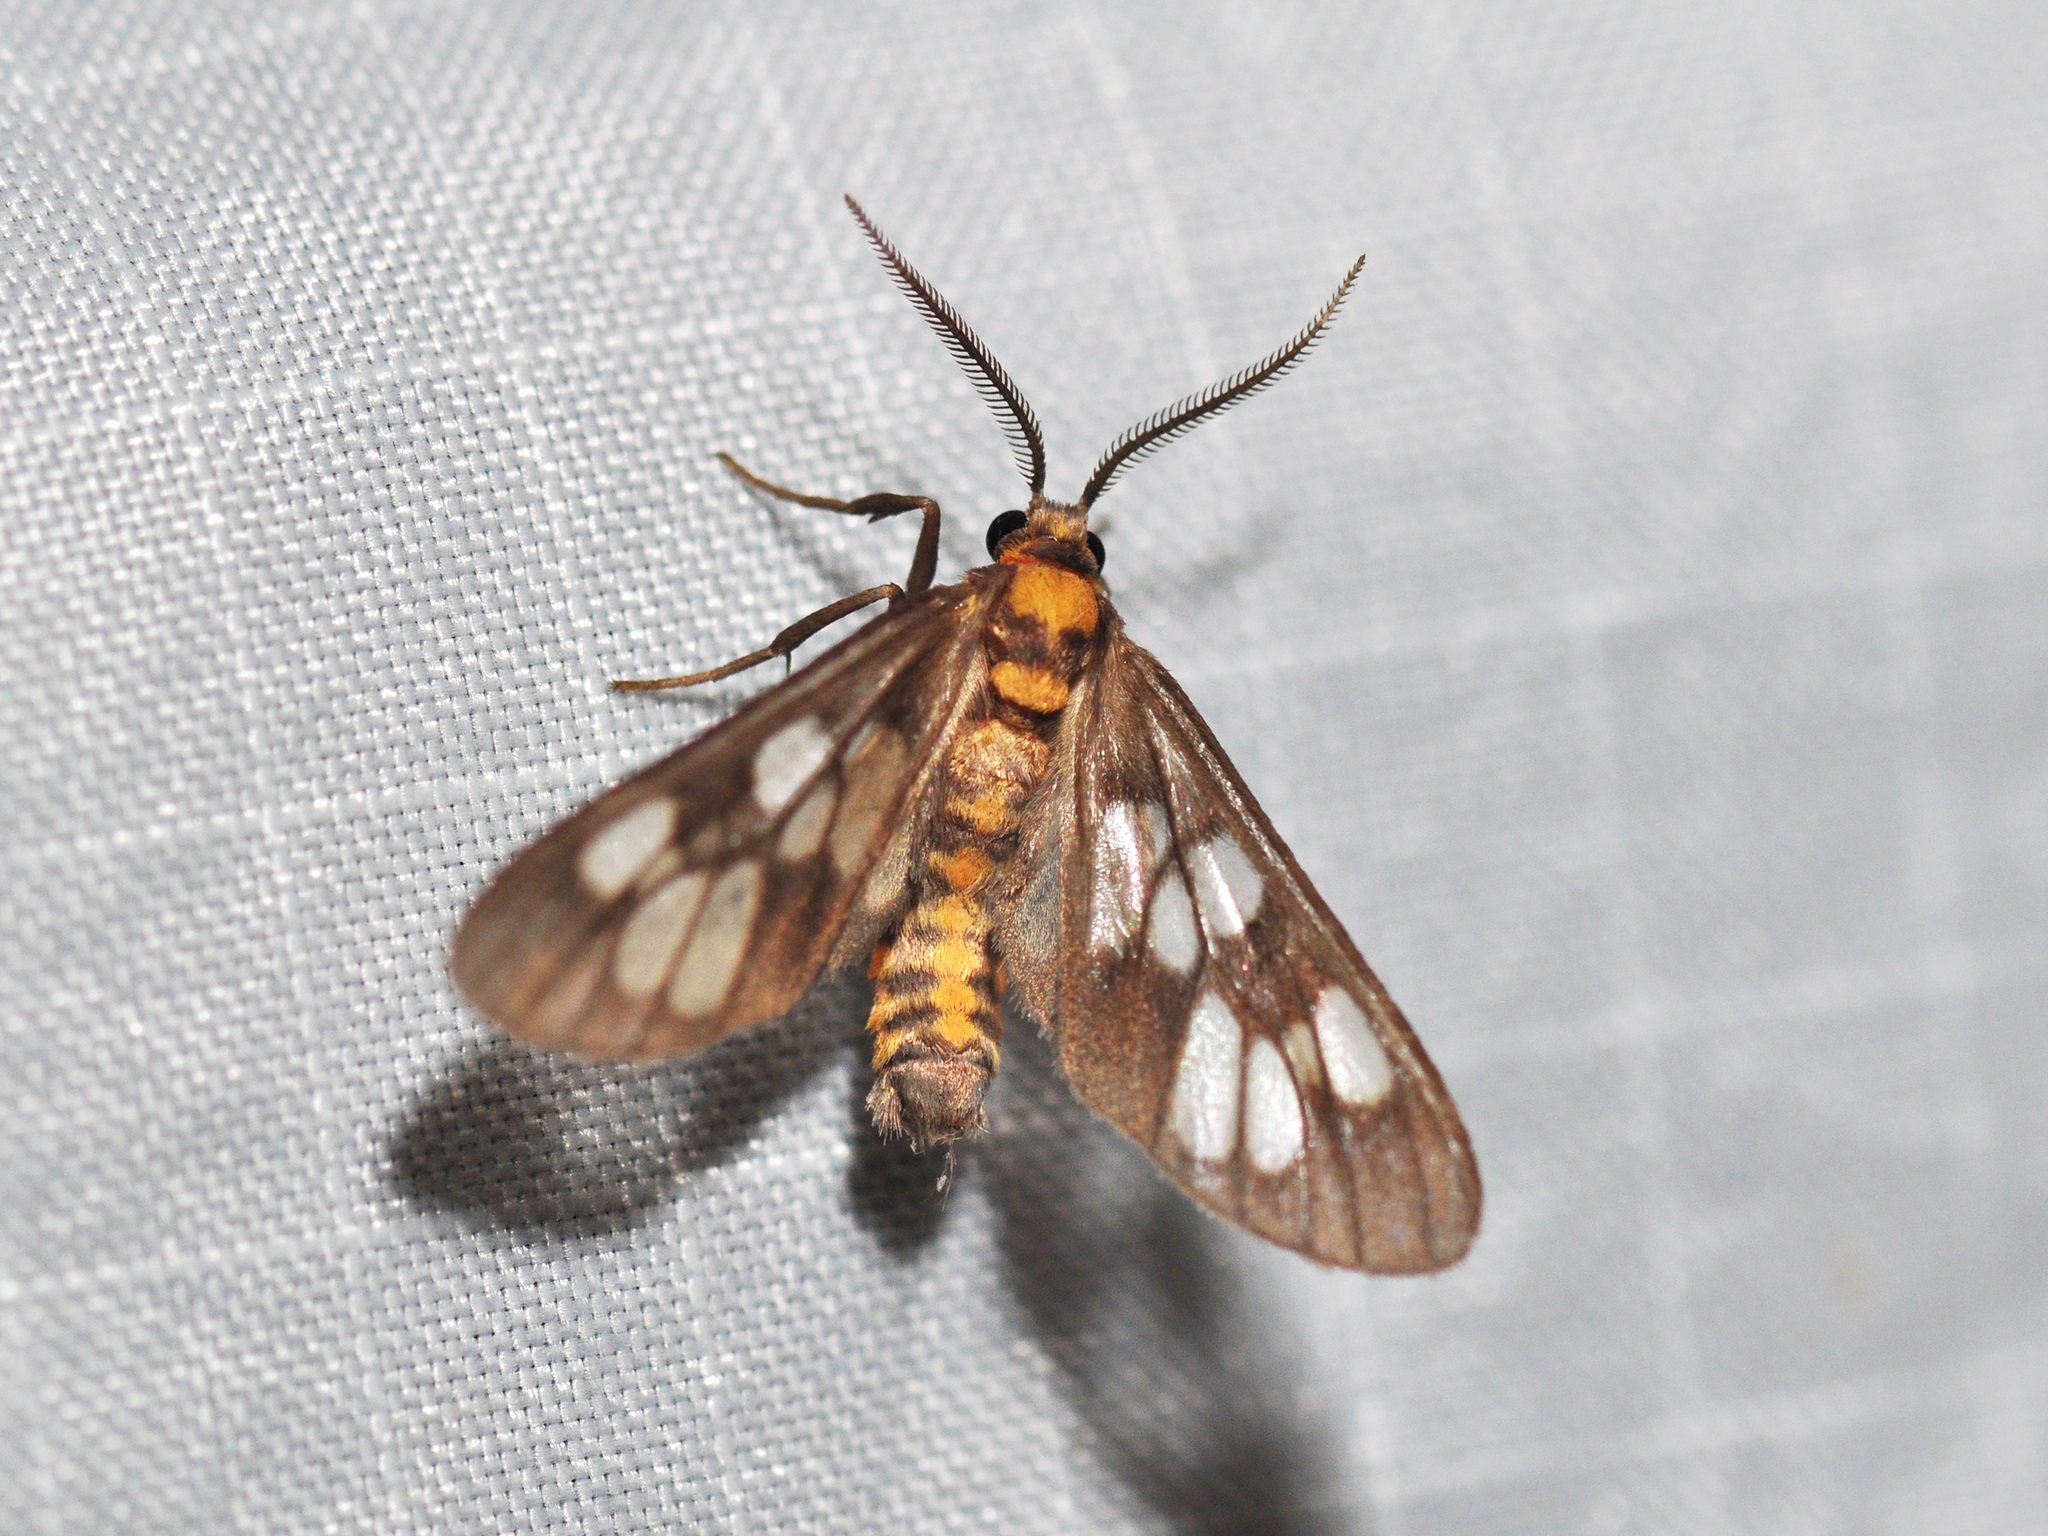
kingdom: Animalia
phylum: Arthropoda
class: Insecta
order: Lepidoptera
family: Erebidae
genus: Eressa
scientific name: Eressa confinis
